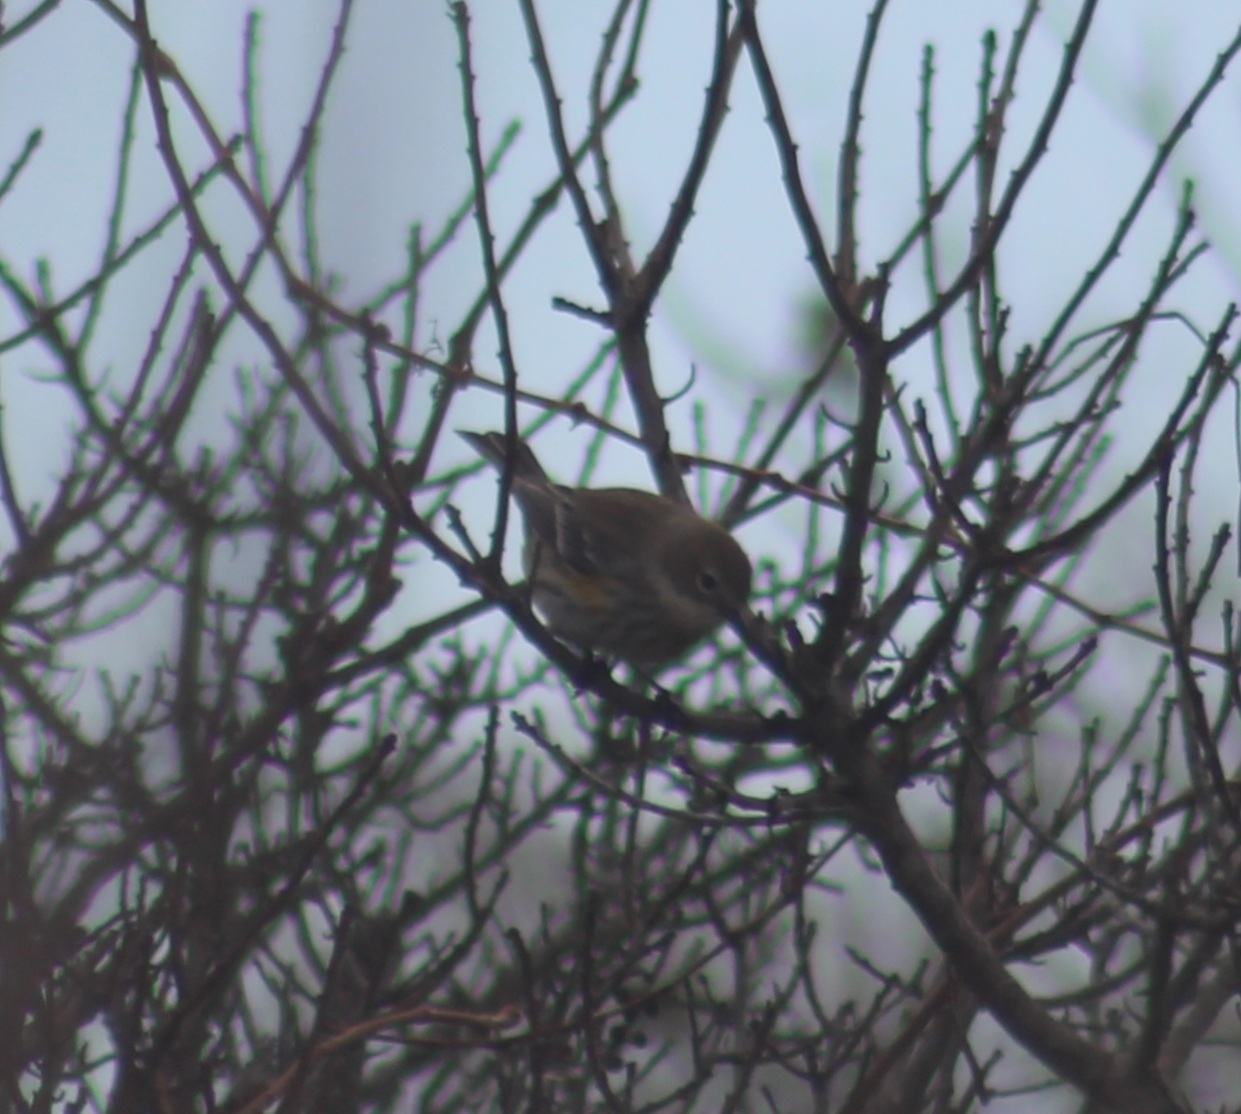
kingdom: Animalia
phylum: Chordata
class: Aves
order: Passeriformes
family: Parulidae
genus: Setophaga
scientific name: Setophaga coronata
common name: Myrtle warbler
